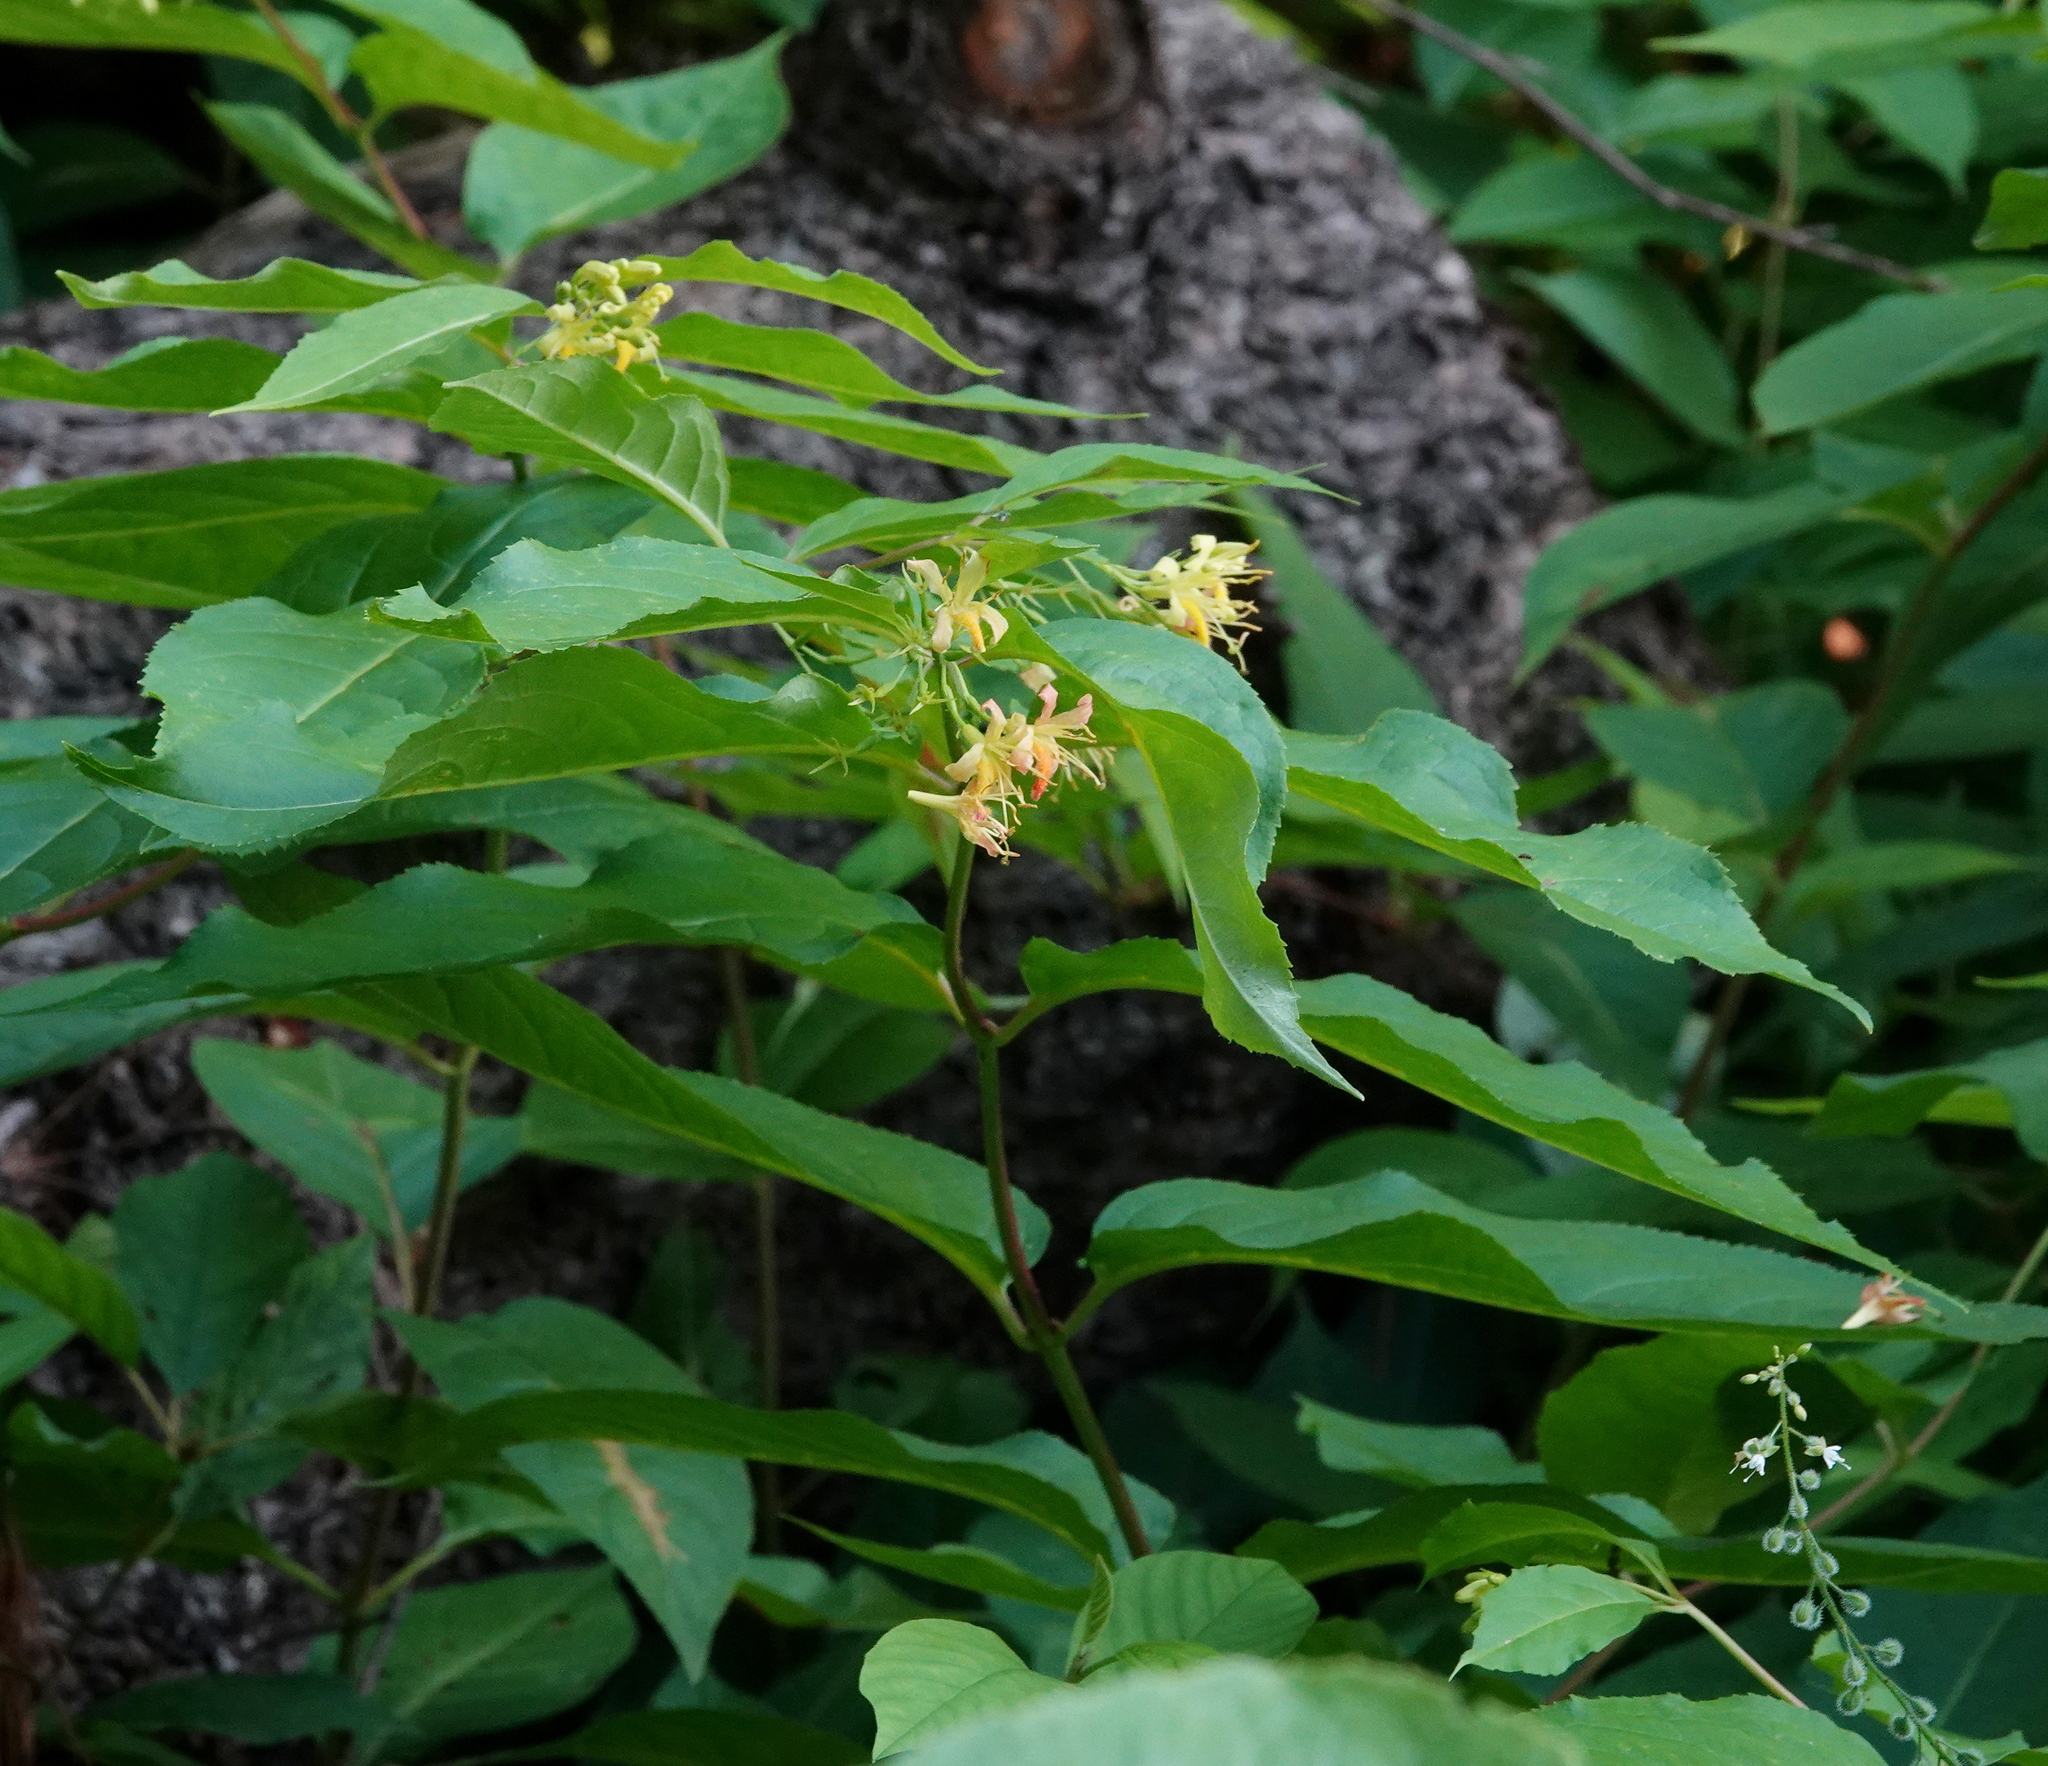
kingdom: Plantae
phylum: Tracheophyta
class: Magnoliopsida
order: Dipsacales
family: Caprifoliaceae
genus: Diervilla
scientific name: Diervilla lonicera
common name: Bush-honeysuckle
